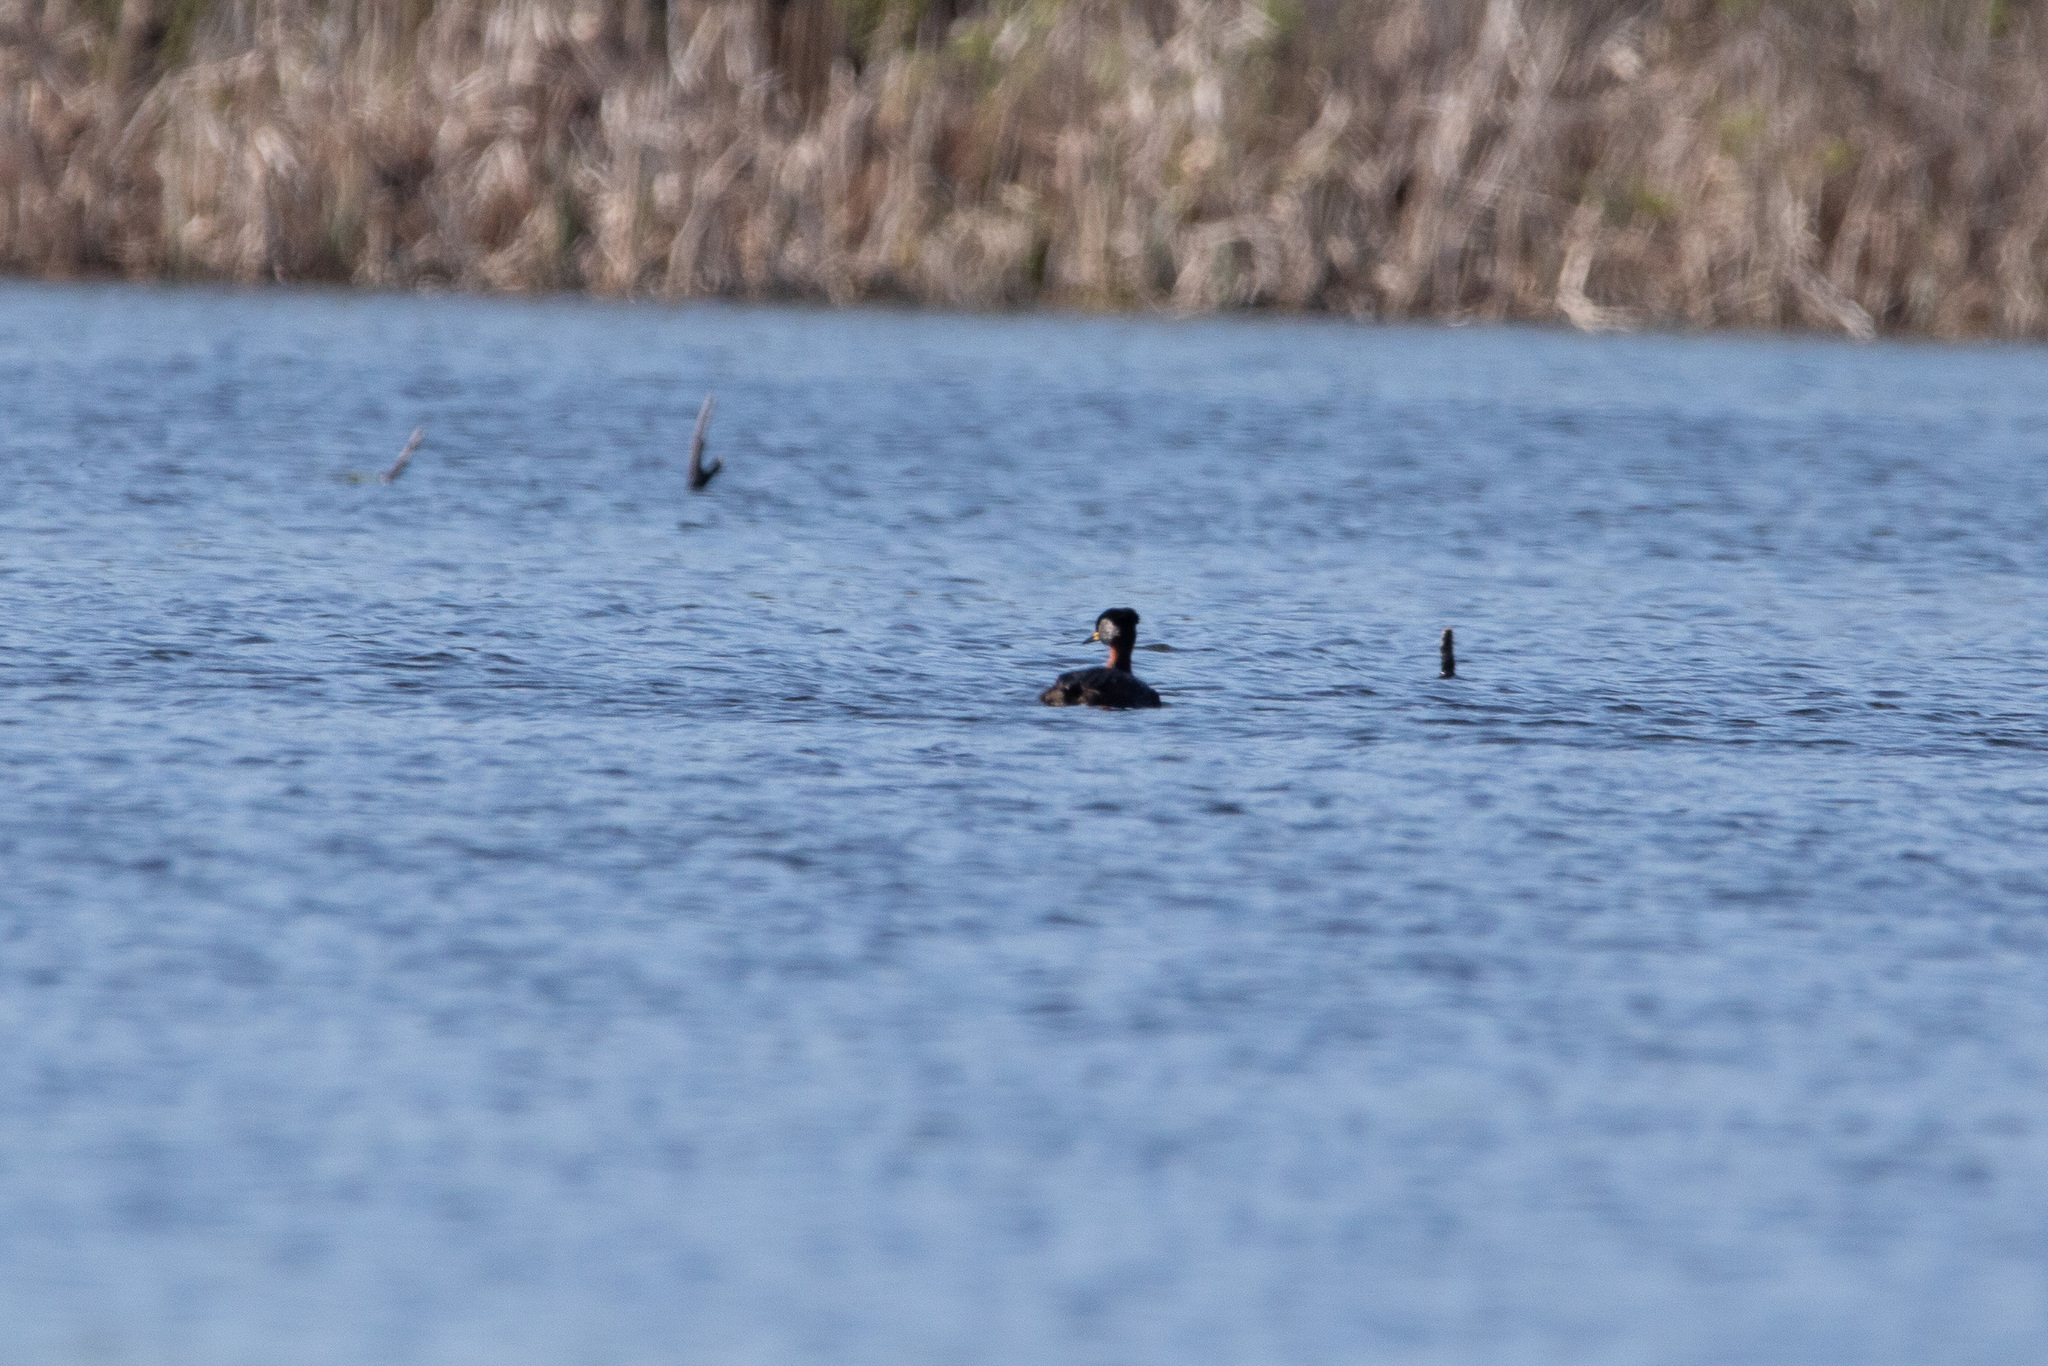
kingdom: Animalia
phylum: Chordata
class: Aves
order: Podicipediformes
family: Podicipedidae
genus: Podiceps
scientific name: Podiceps grisegena
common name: Red-necked grebe
